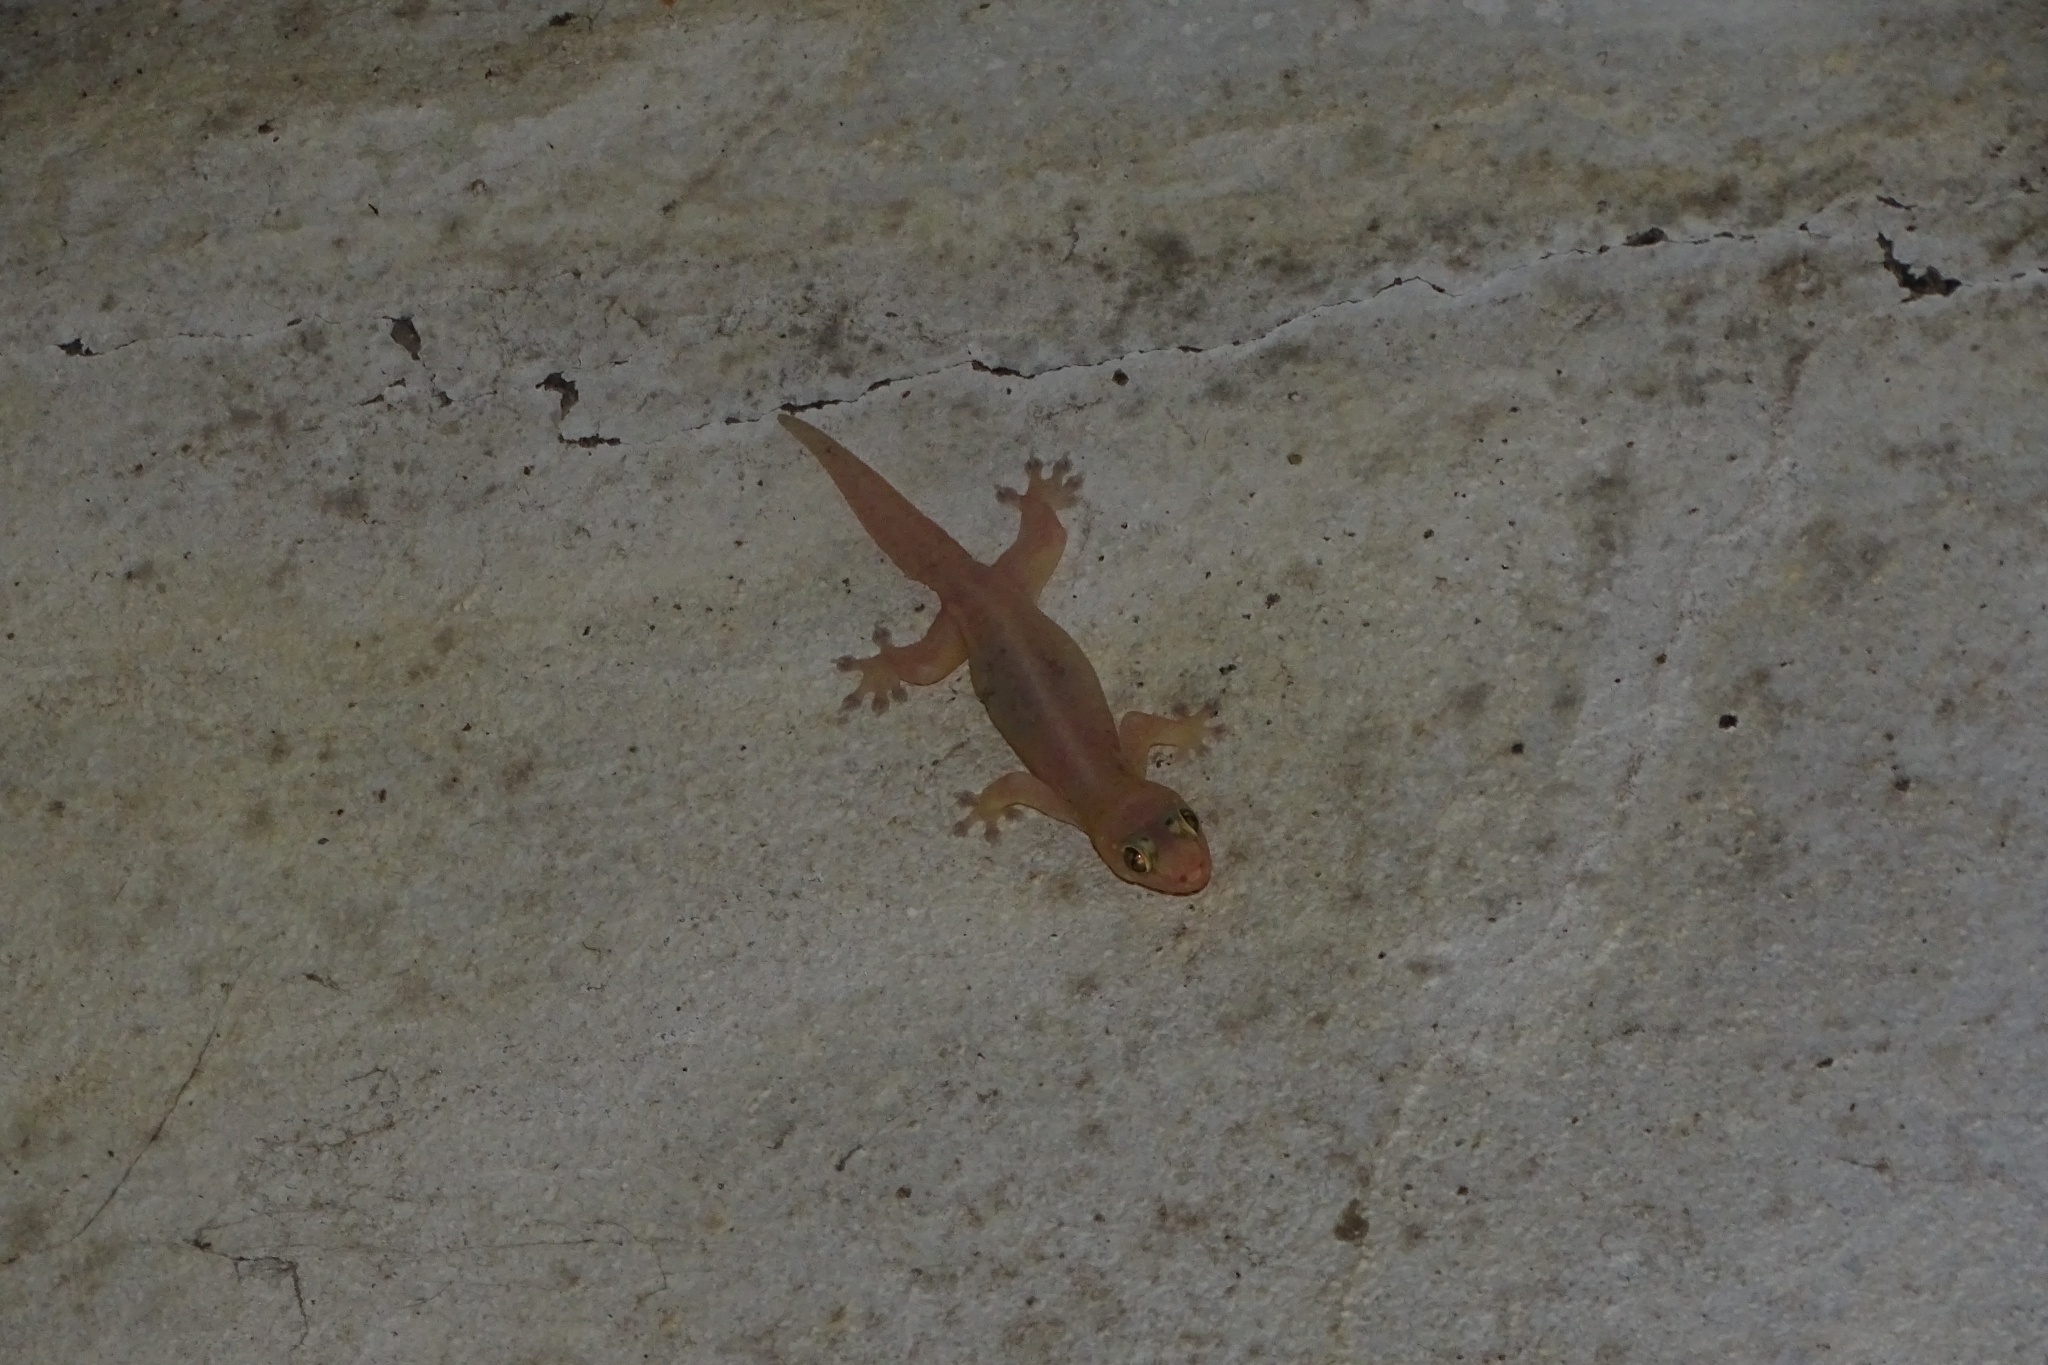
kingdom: Animalia
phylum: Chordata
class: Squamata
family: Gekkonidae
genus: Hemidactylus
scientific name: Hemidactylus frenatus
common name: Common house gecko
